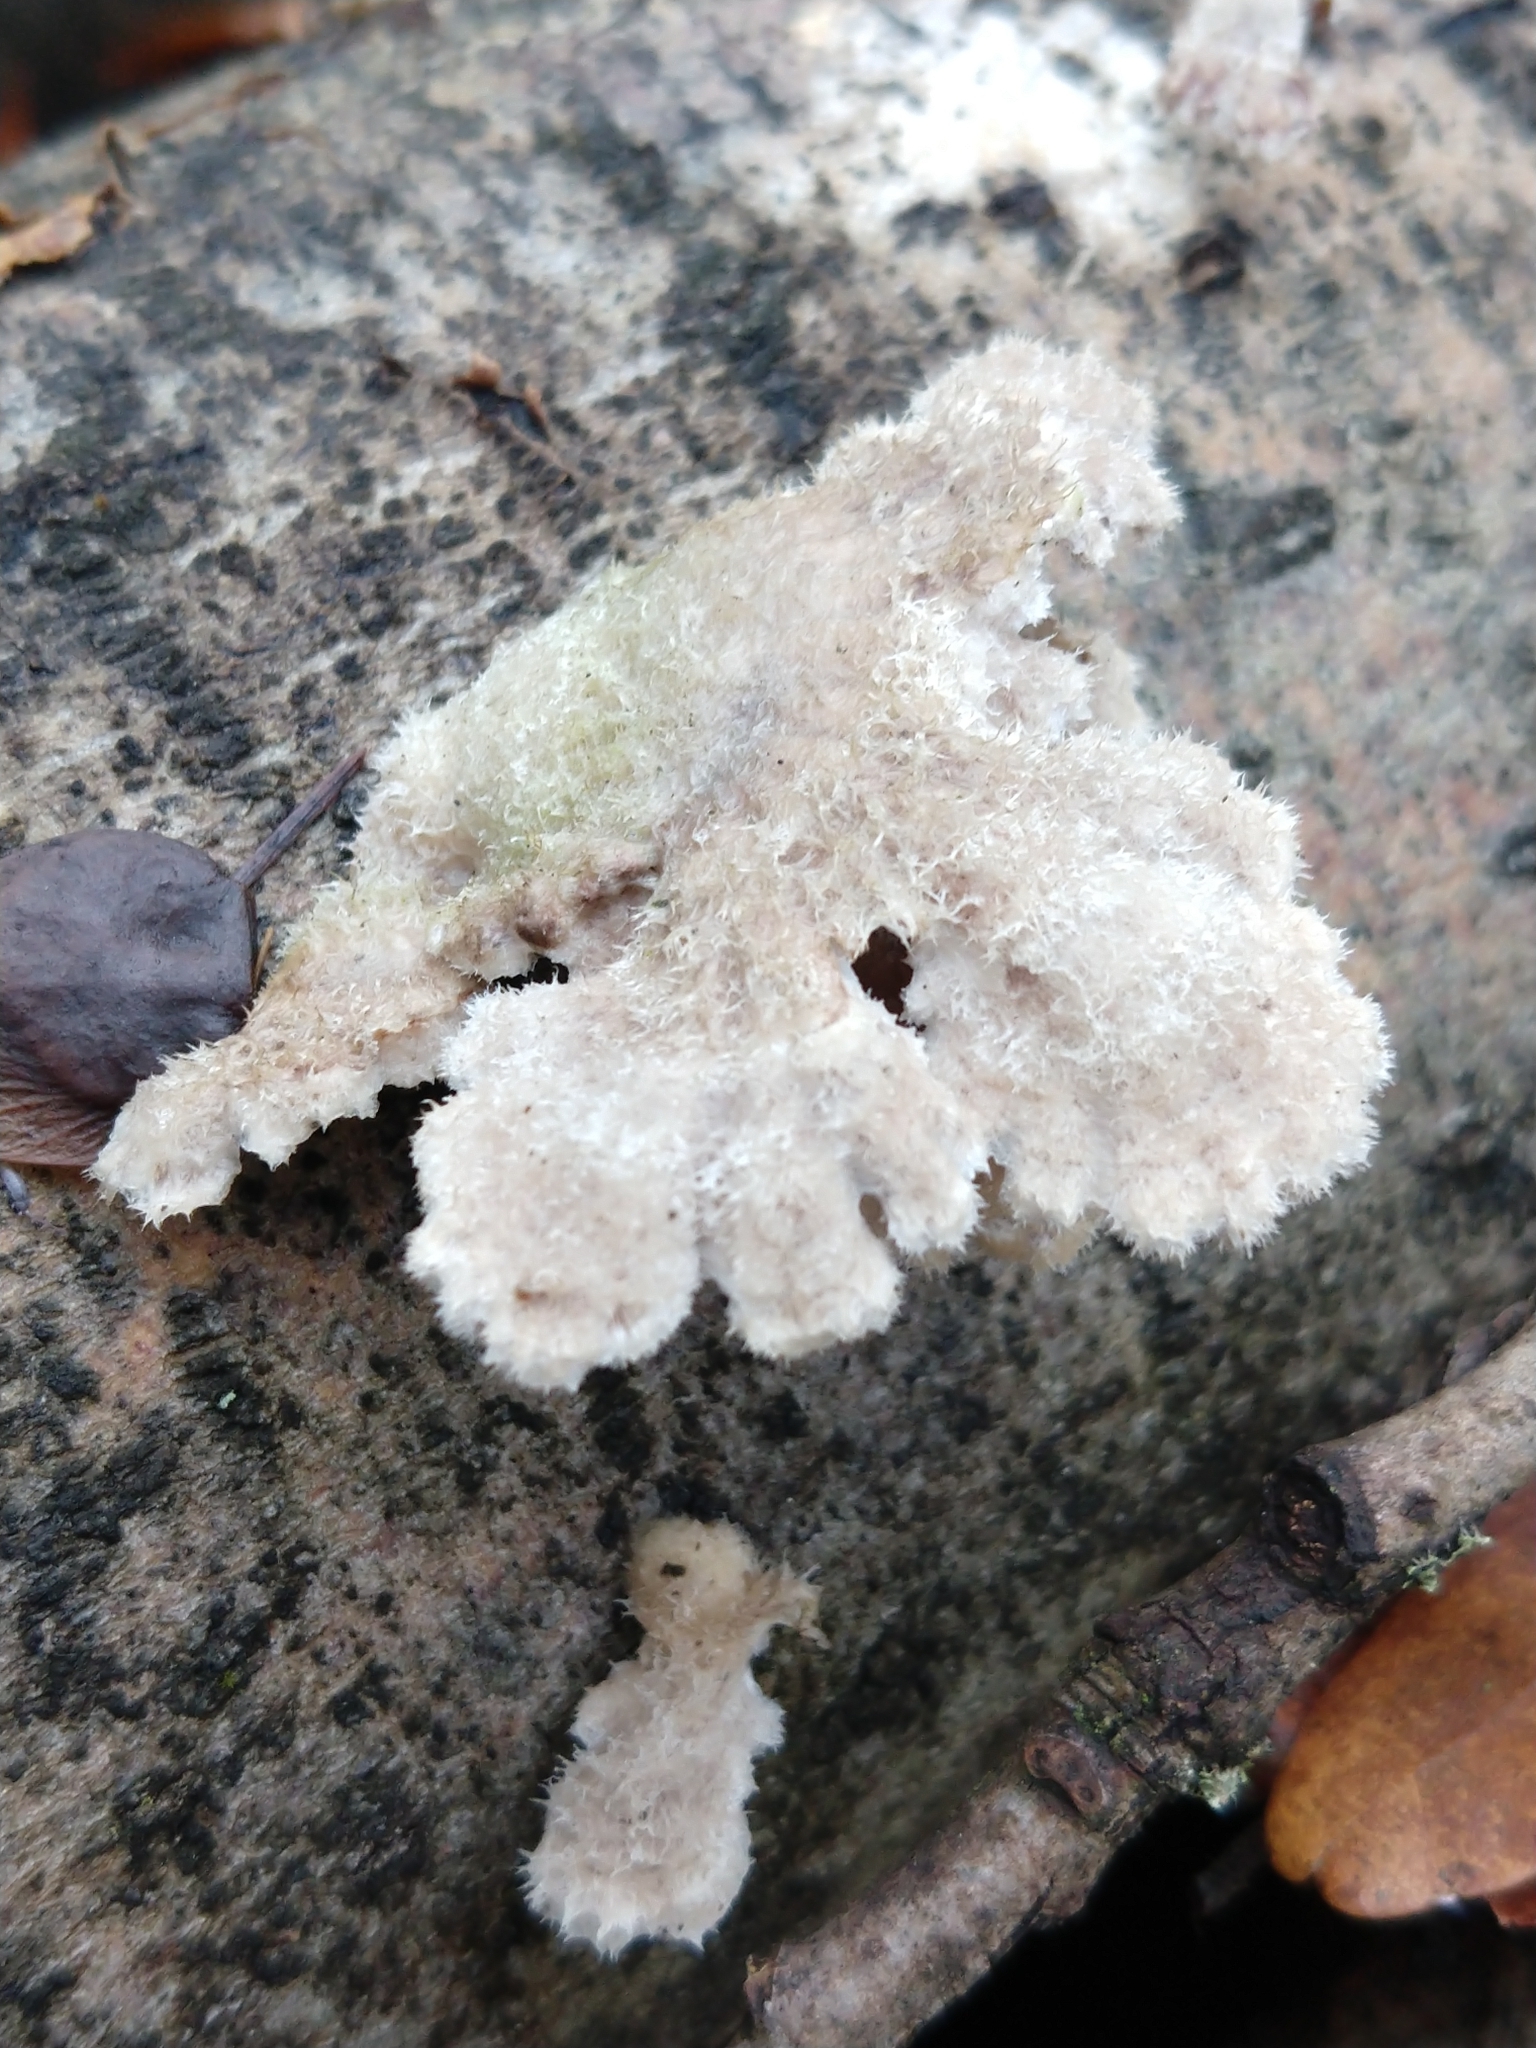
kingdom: Fungi
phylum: Basidiomycota
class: Agaricomycetes
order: Agaricales
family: Schizophyllaceae
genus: Schizophyllum
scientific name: Schizophyllum commune
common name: Common porecrust
